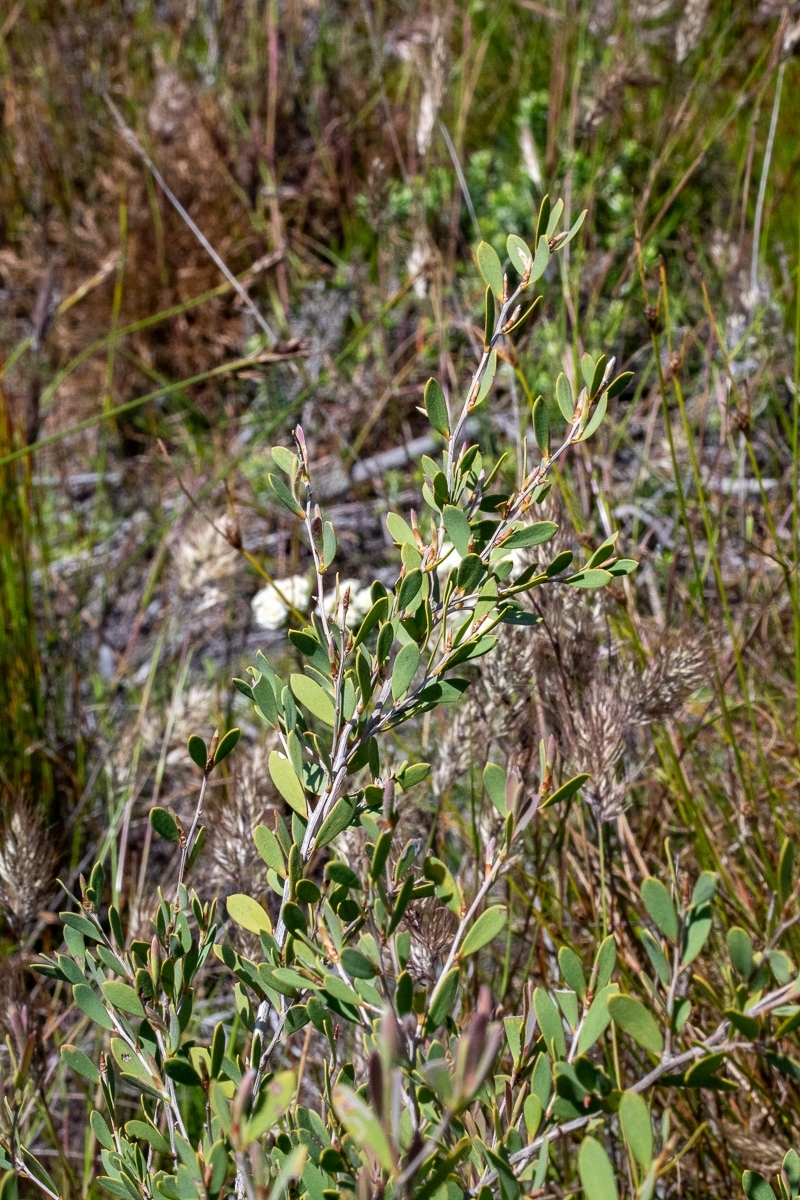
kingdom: Plantae
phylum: Tracheophyta
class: Magnoliopsida
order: Myrtales
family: Myrtaceae
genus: Leptospermum
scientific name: Leptospermum laevigatum
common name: Australian teatree
